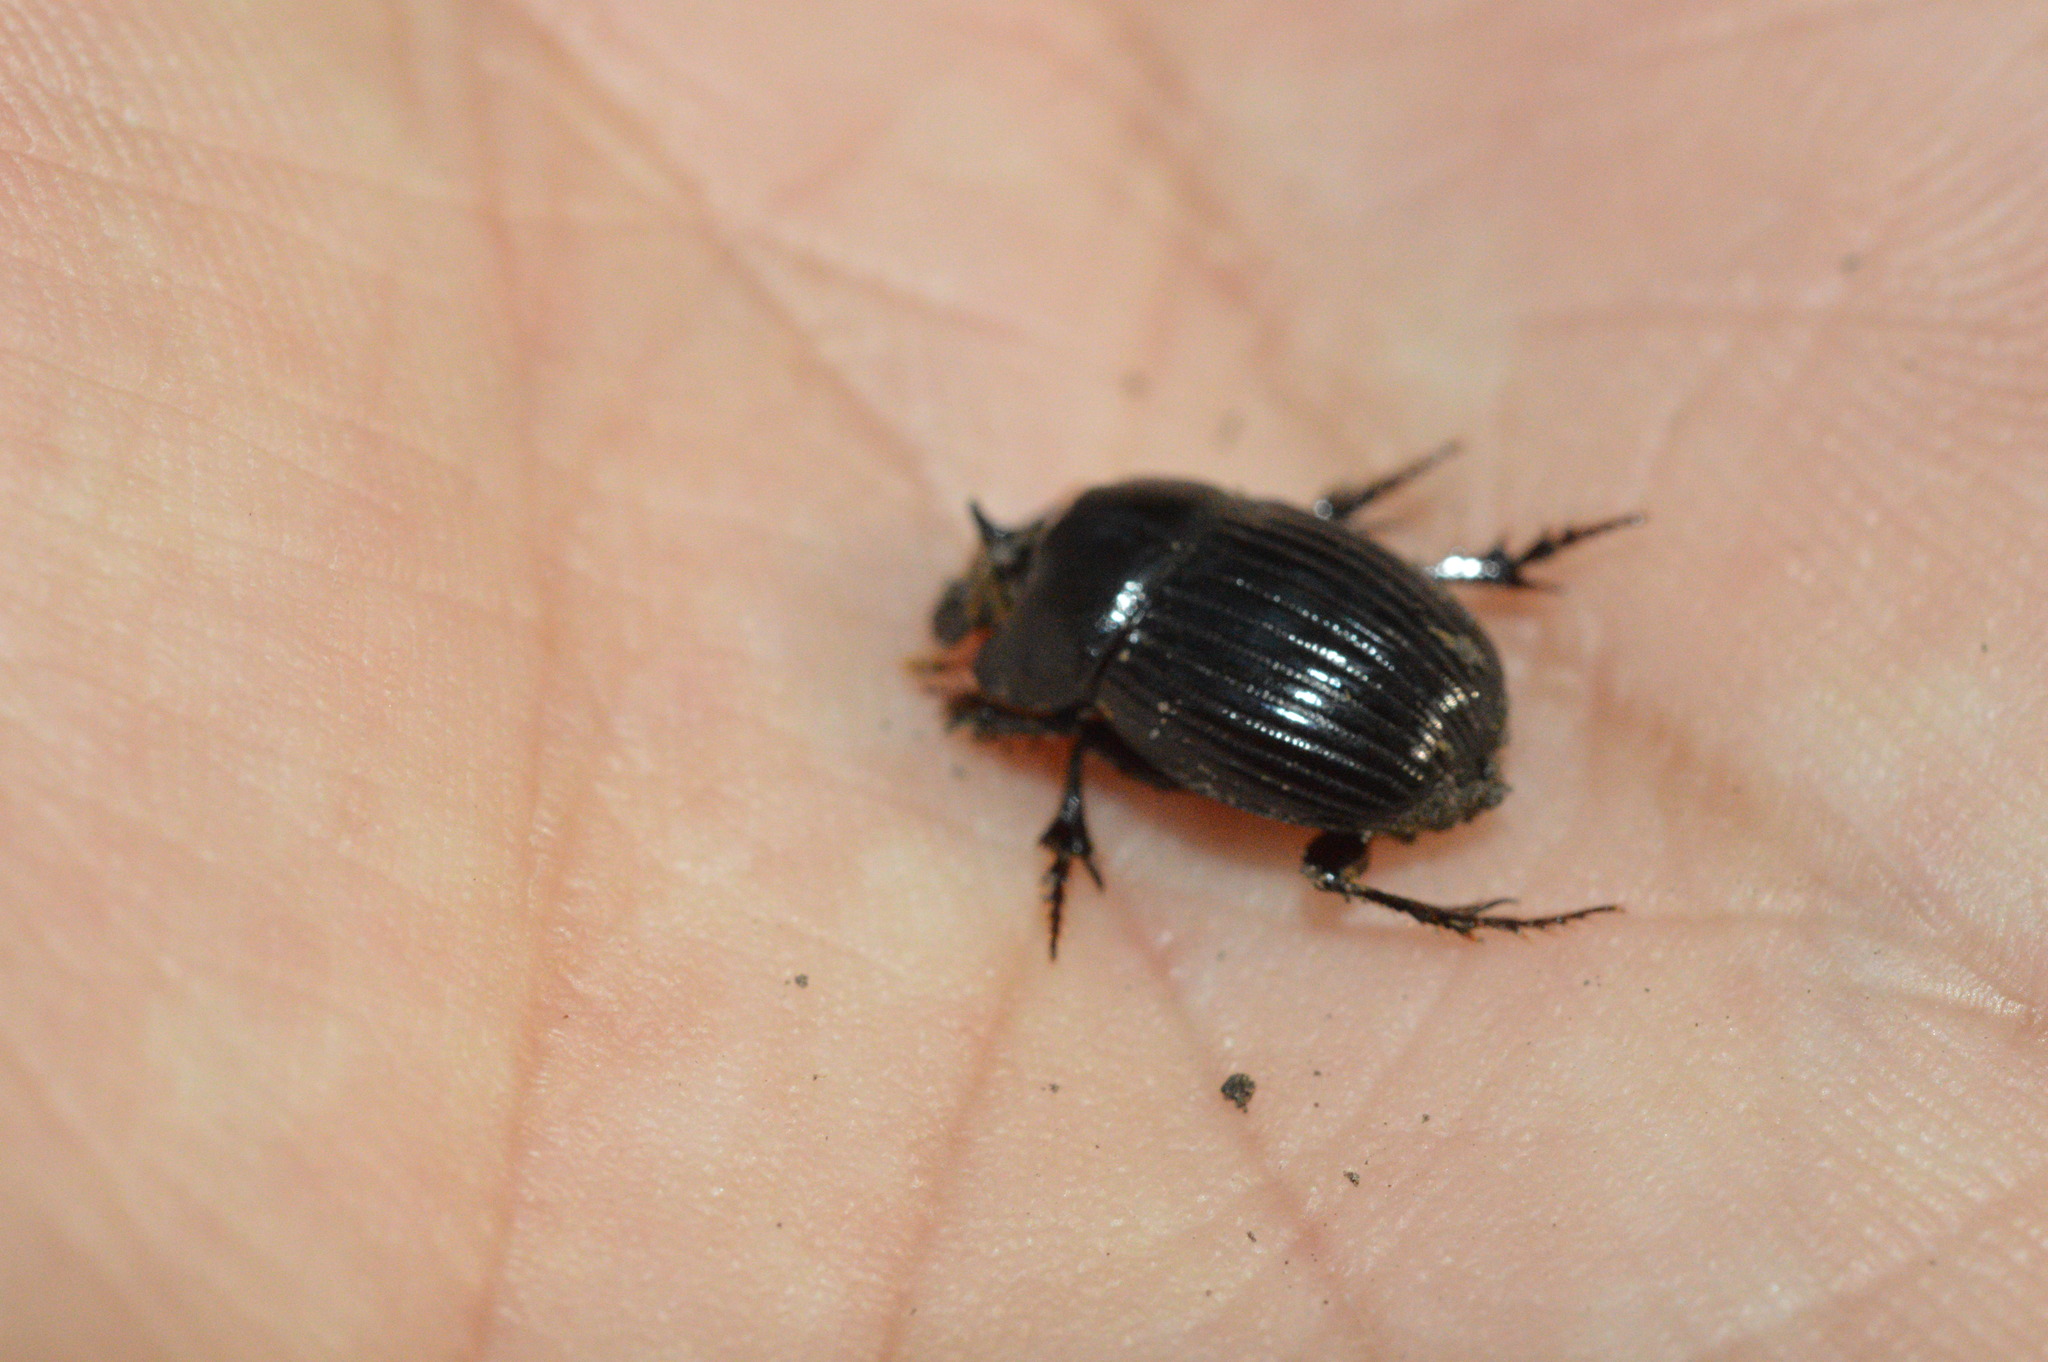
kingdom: Animalia
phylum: Arthropoda
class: Insecta
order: Coleoptera
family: Scarabaeidae
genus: Copris
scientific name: Copris minutus
